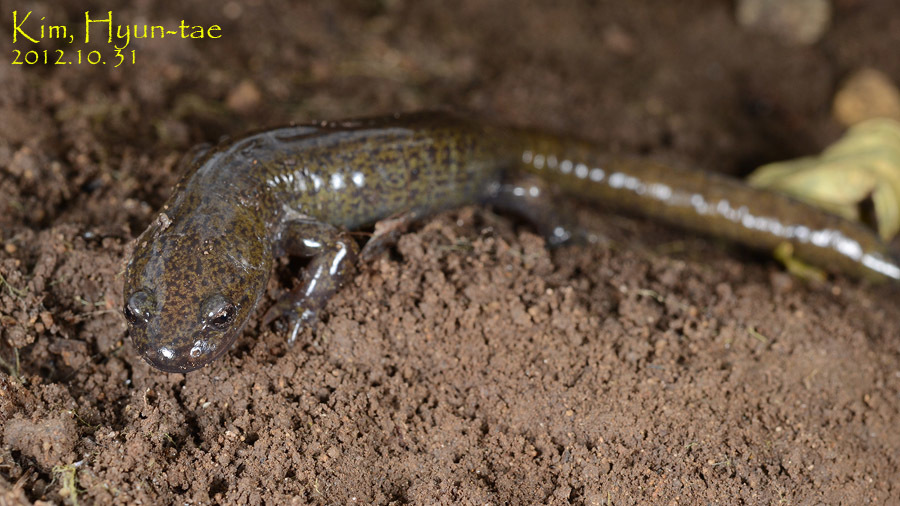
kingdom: Animalia
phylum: Chordata
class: Amphibia
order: Caudata
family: Hynobiidae
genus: Hynobius
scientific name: Hynobius leechii
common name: Gensan salamander
